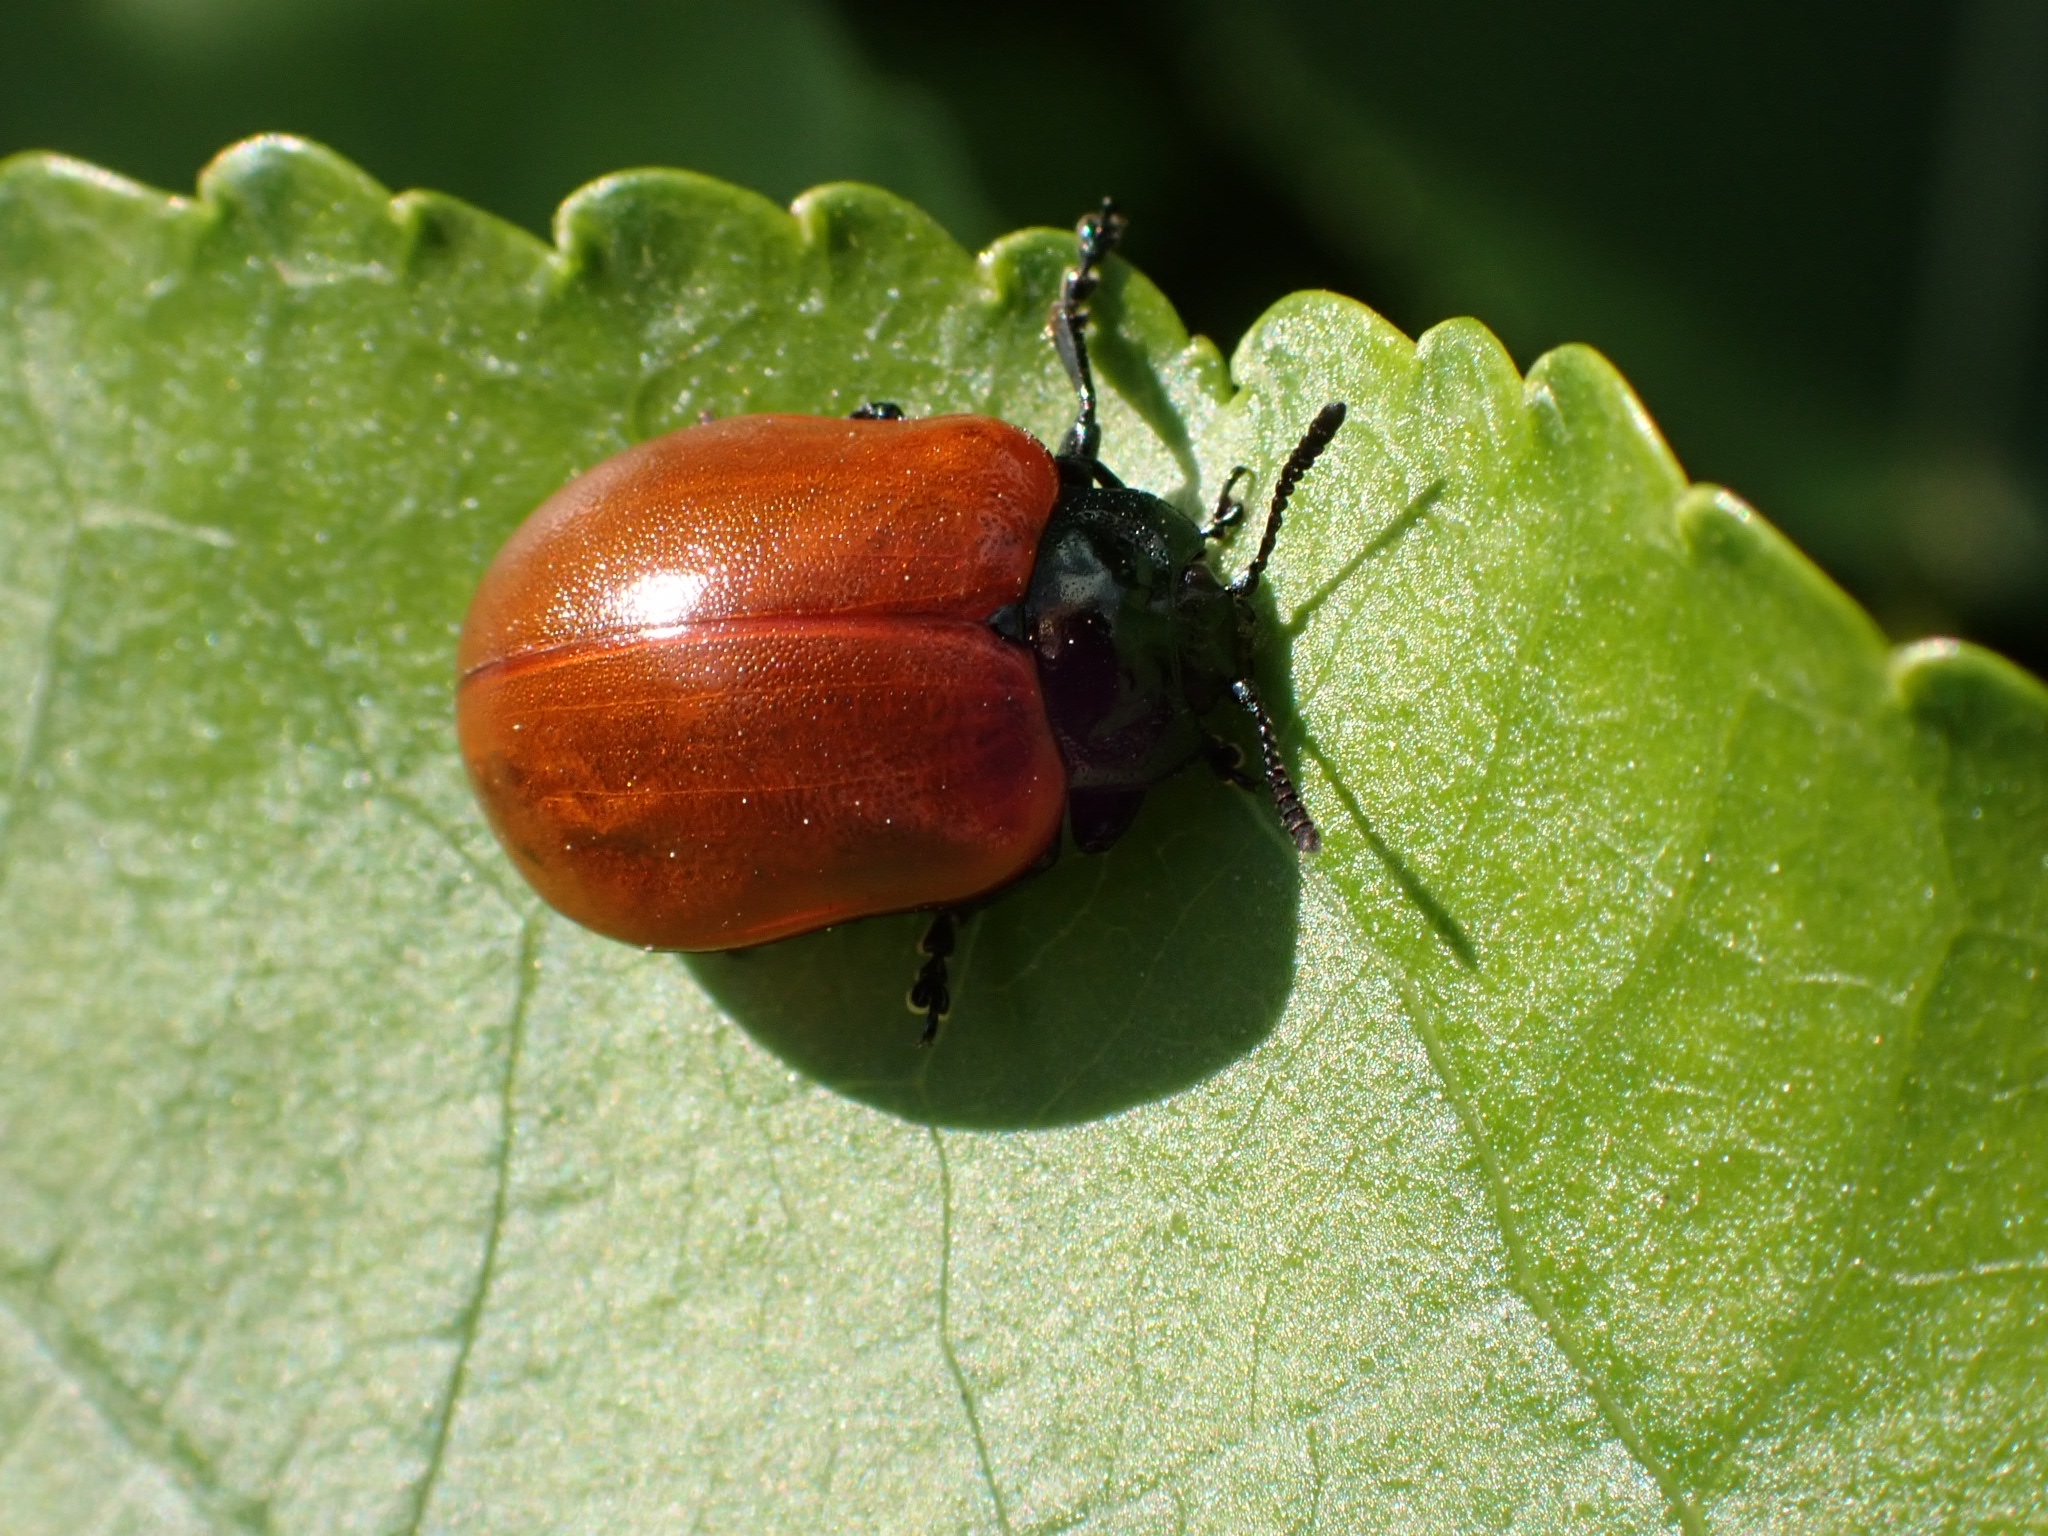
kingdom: Animalia
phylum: Arthropoda
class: Insecta
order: Coleoptera
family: Chrysomelidae
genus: Chrysomela
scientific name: Chrysomela populi
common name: Red poplar leaf beetle
